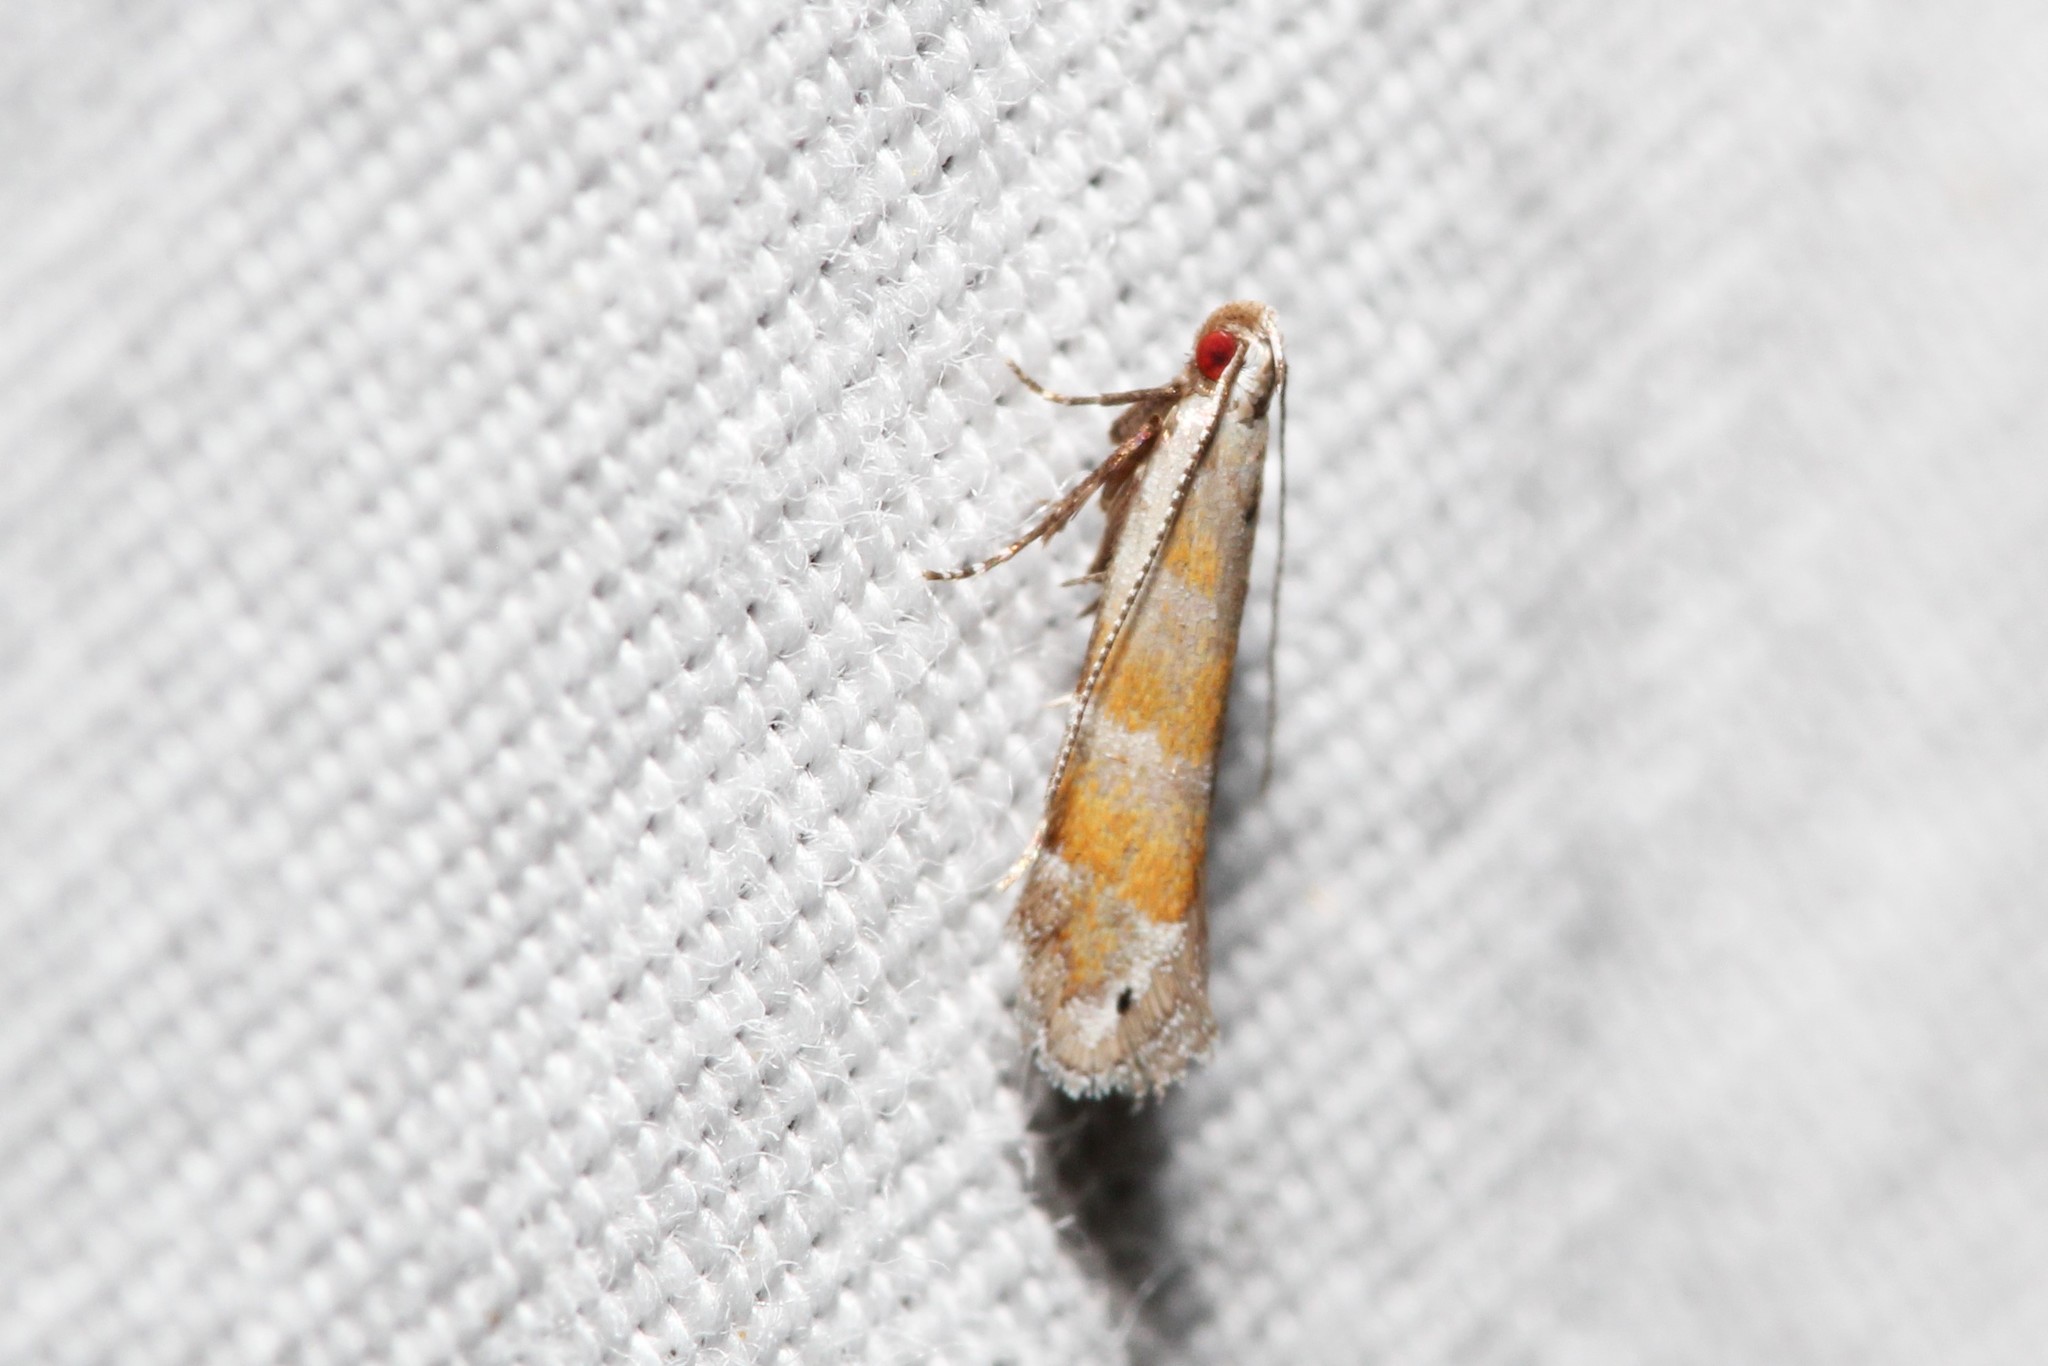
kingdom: Animalia
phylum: Arthropoda
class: Insecta
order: Lepidoptera
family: Gelechiidae
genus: Battaristis
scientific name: Battaristis vittella
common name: Orange stripe-backed moth
